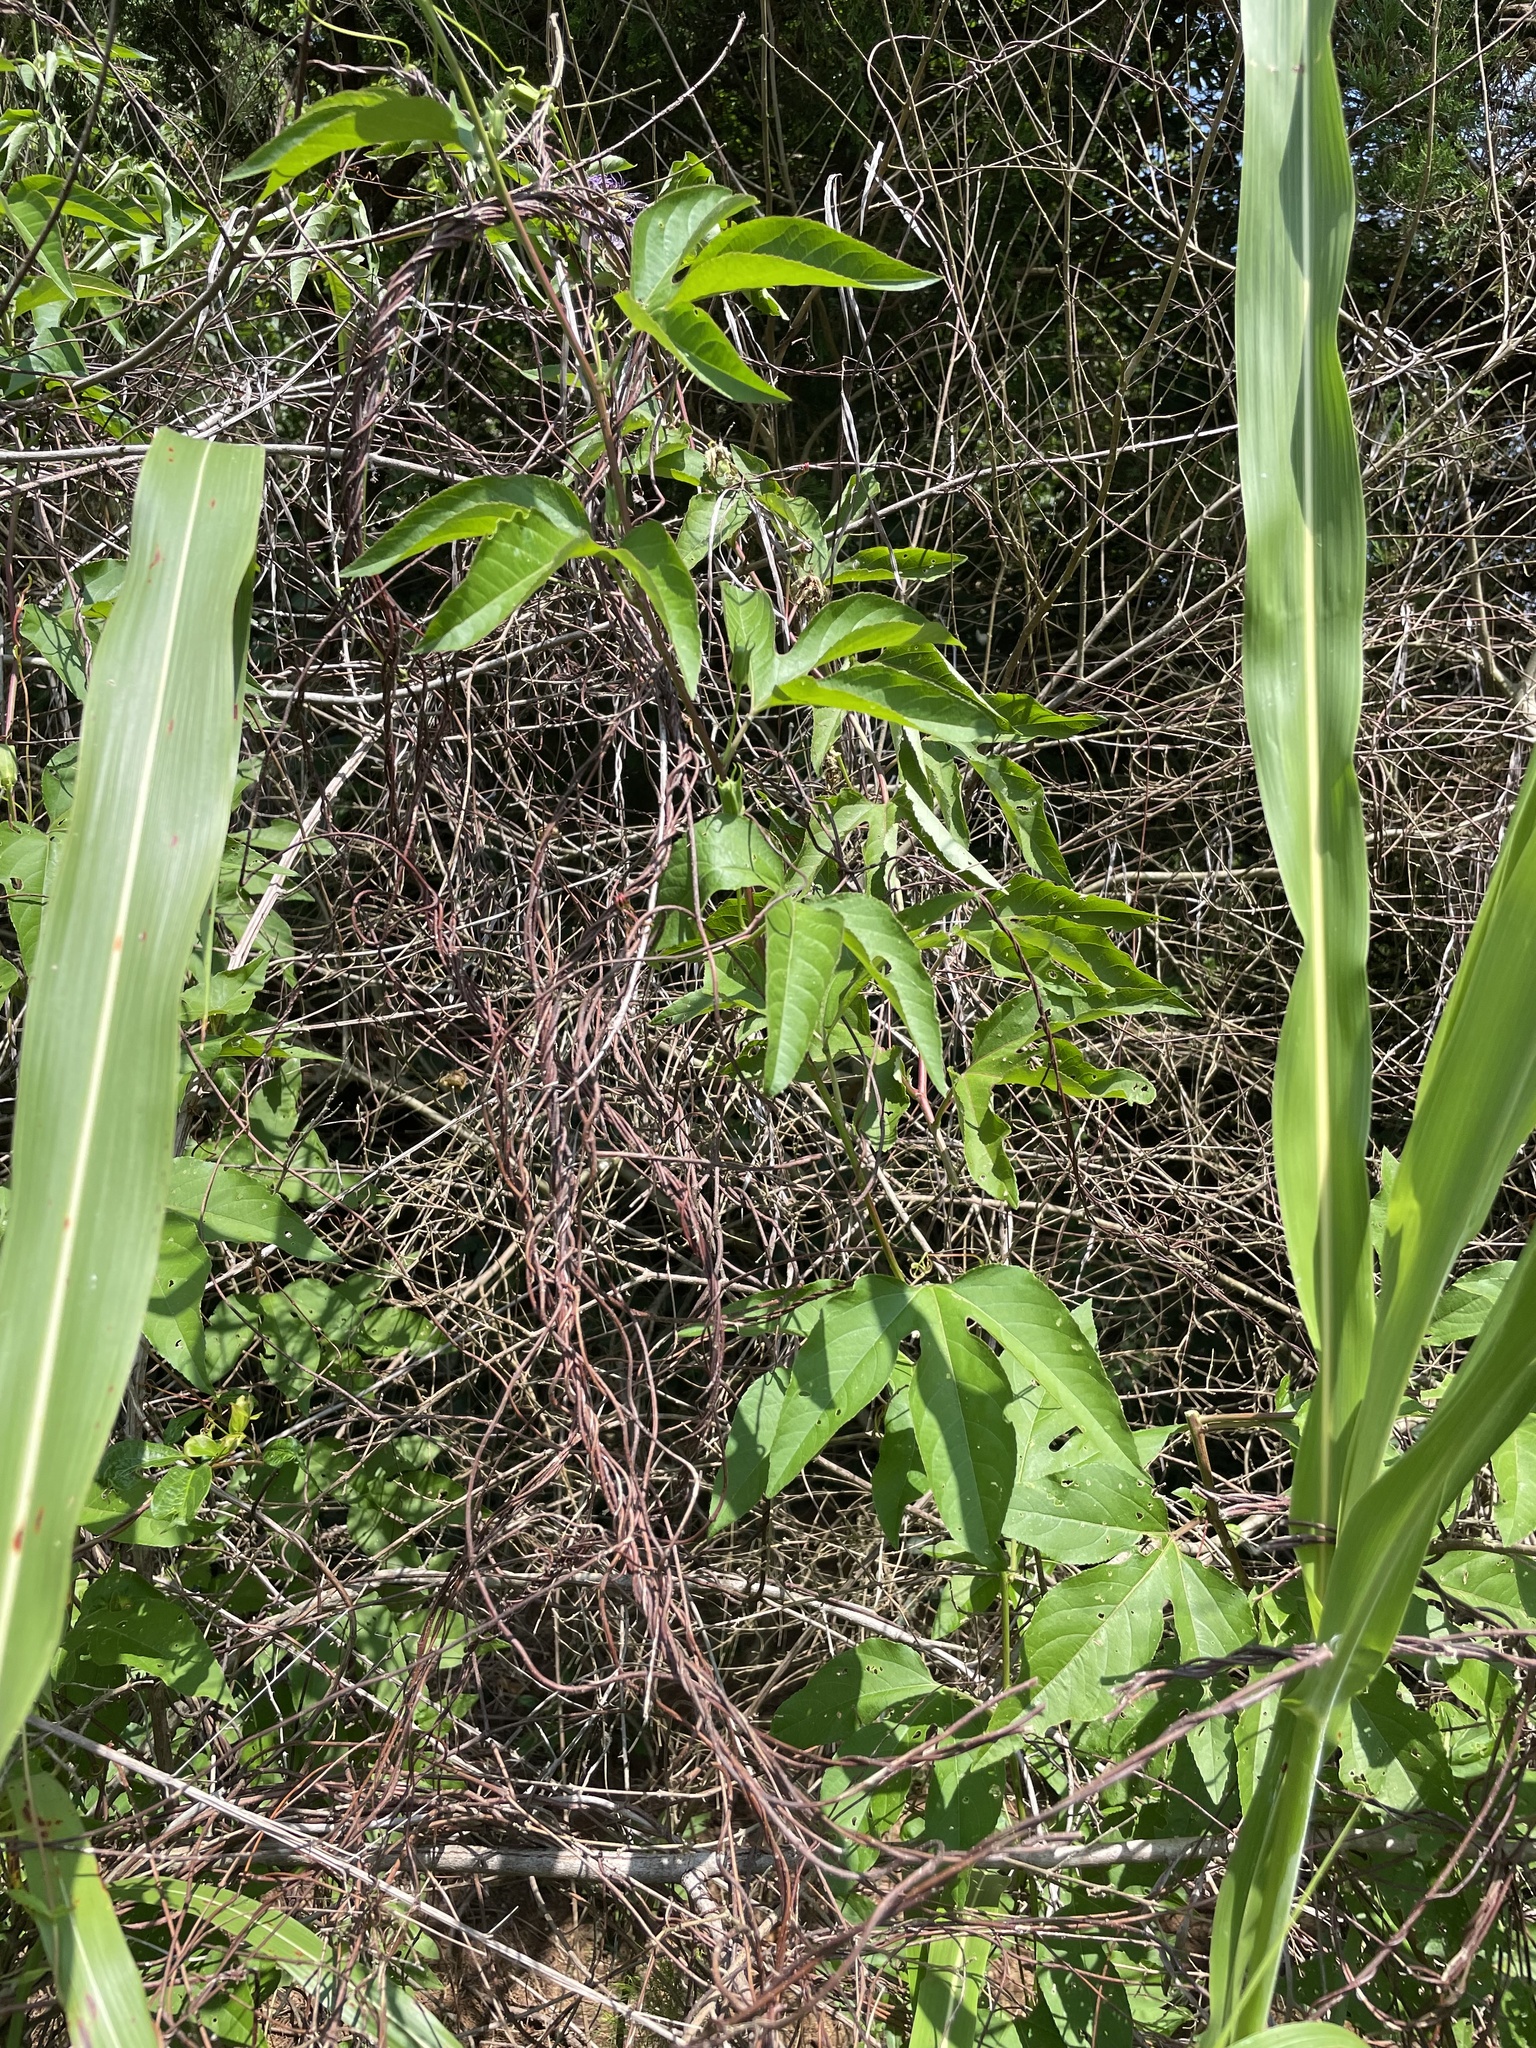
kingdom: Plantae
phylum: Tracheophyta
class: Magnoliopsida
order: Malpighiales
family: Passifloraceae
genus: Passiflora
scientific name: Passiflora incarnata
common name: Apricot-vine
